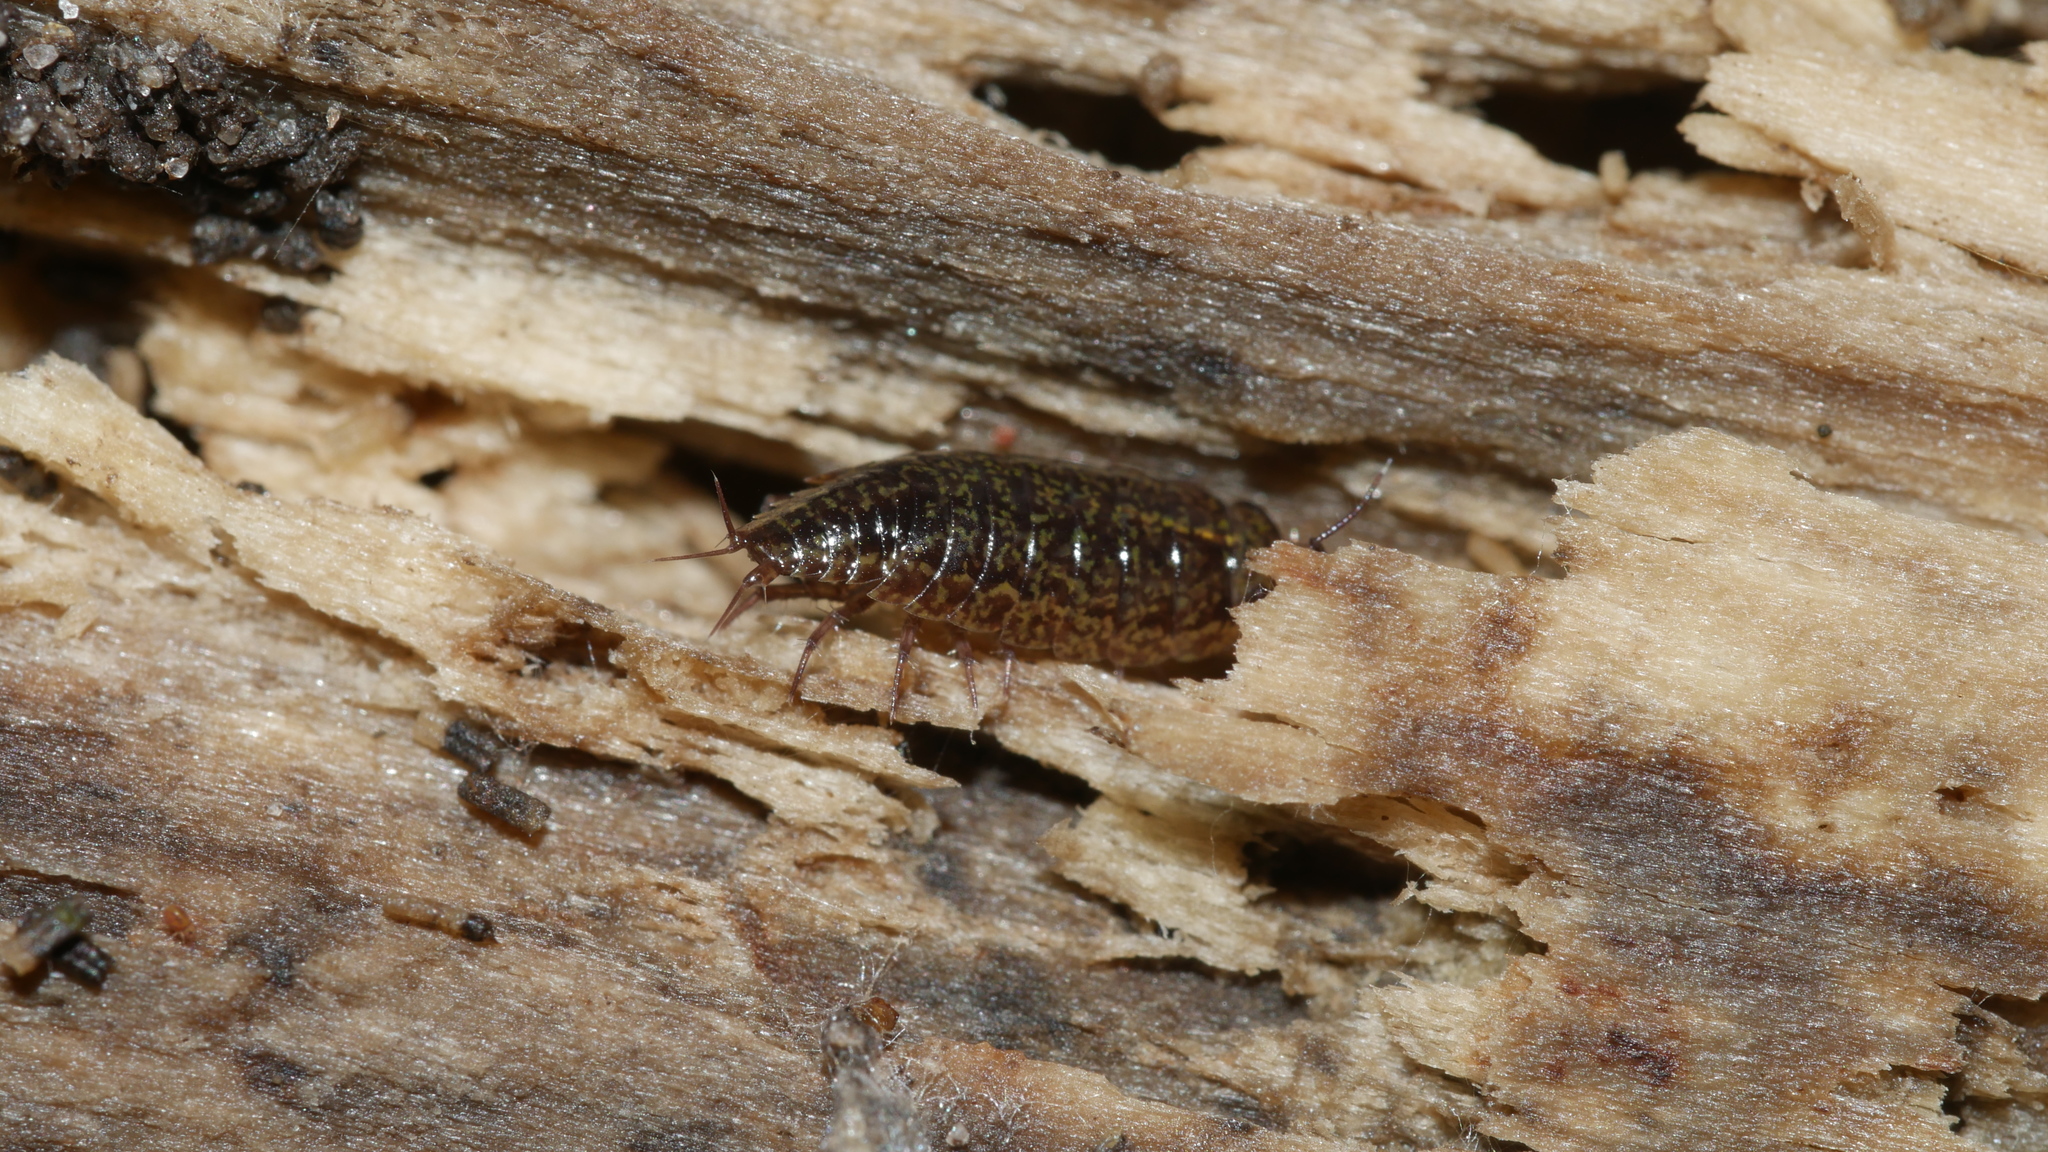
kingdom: Animalia
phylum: Arthropoda
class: Malacostraca
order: Isopoda
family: Ligiidae
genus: Ligidium
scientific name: Ligidium elrodii
